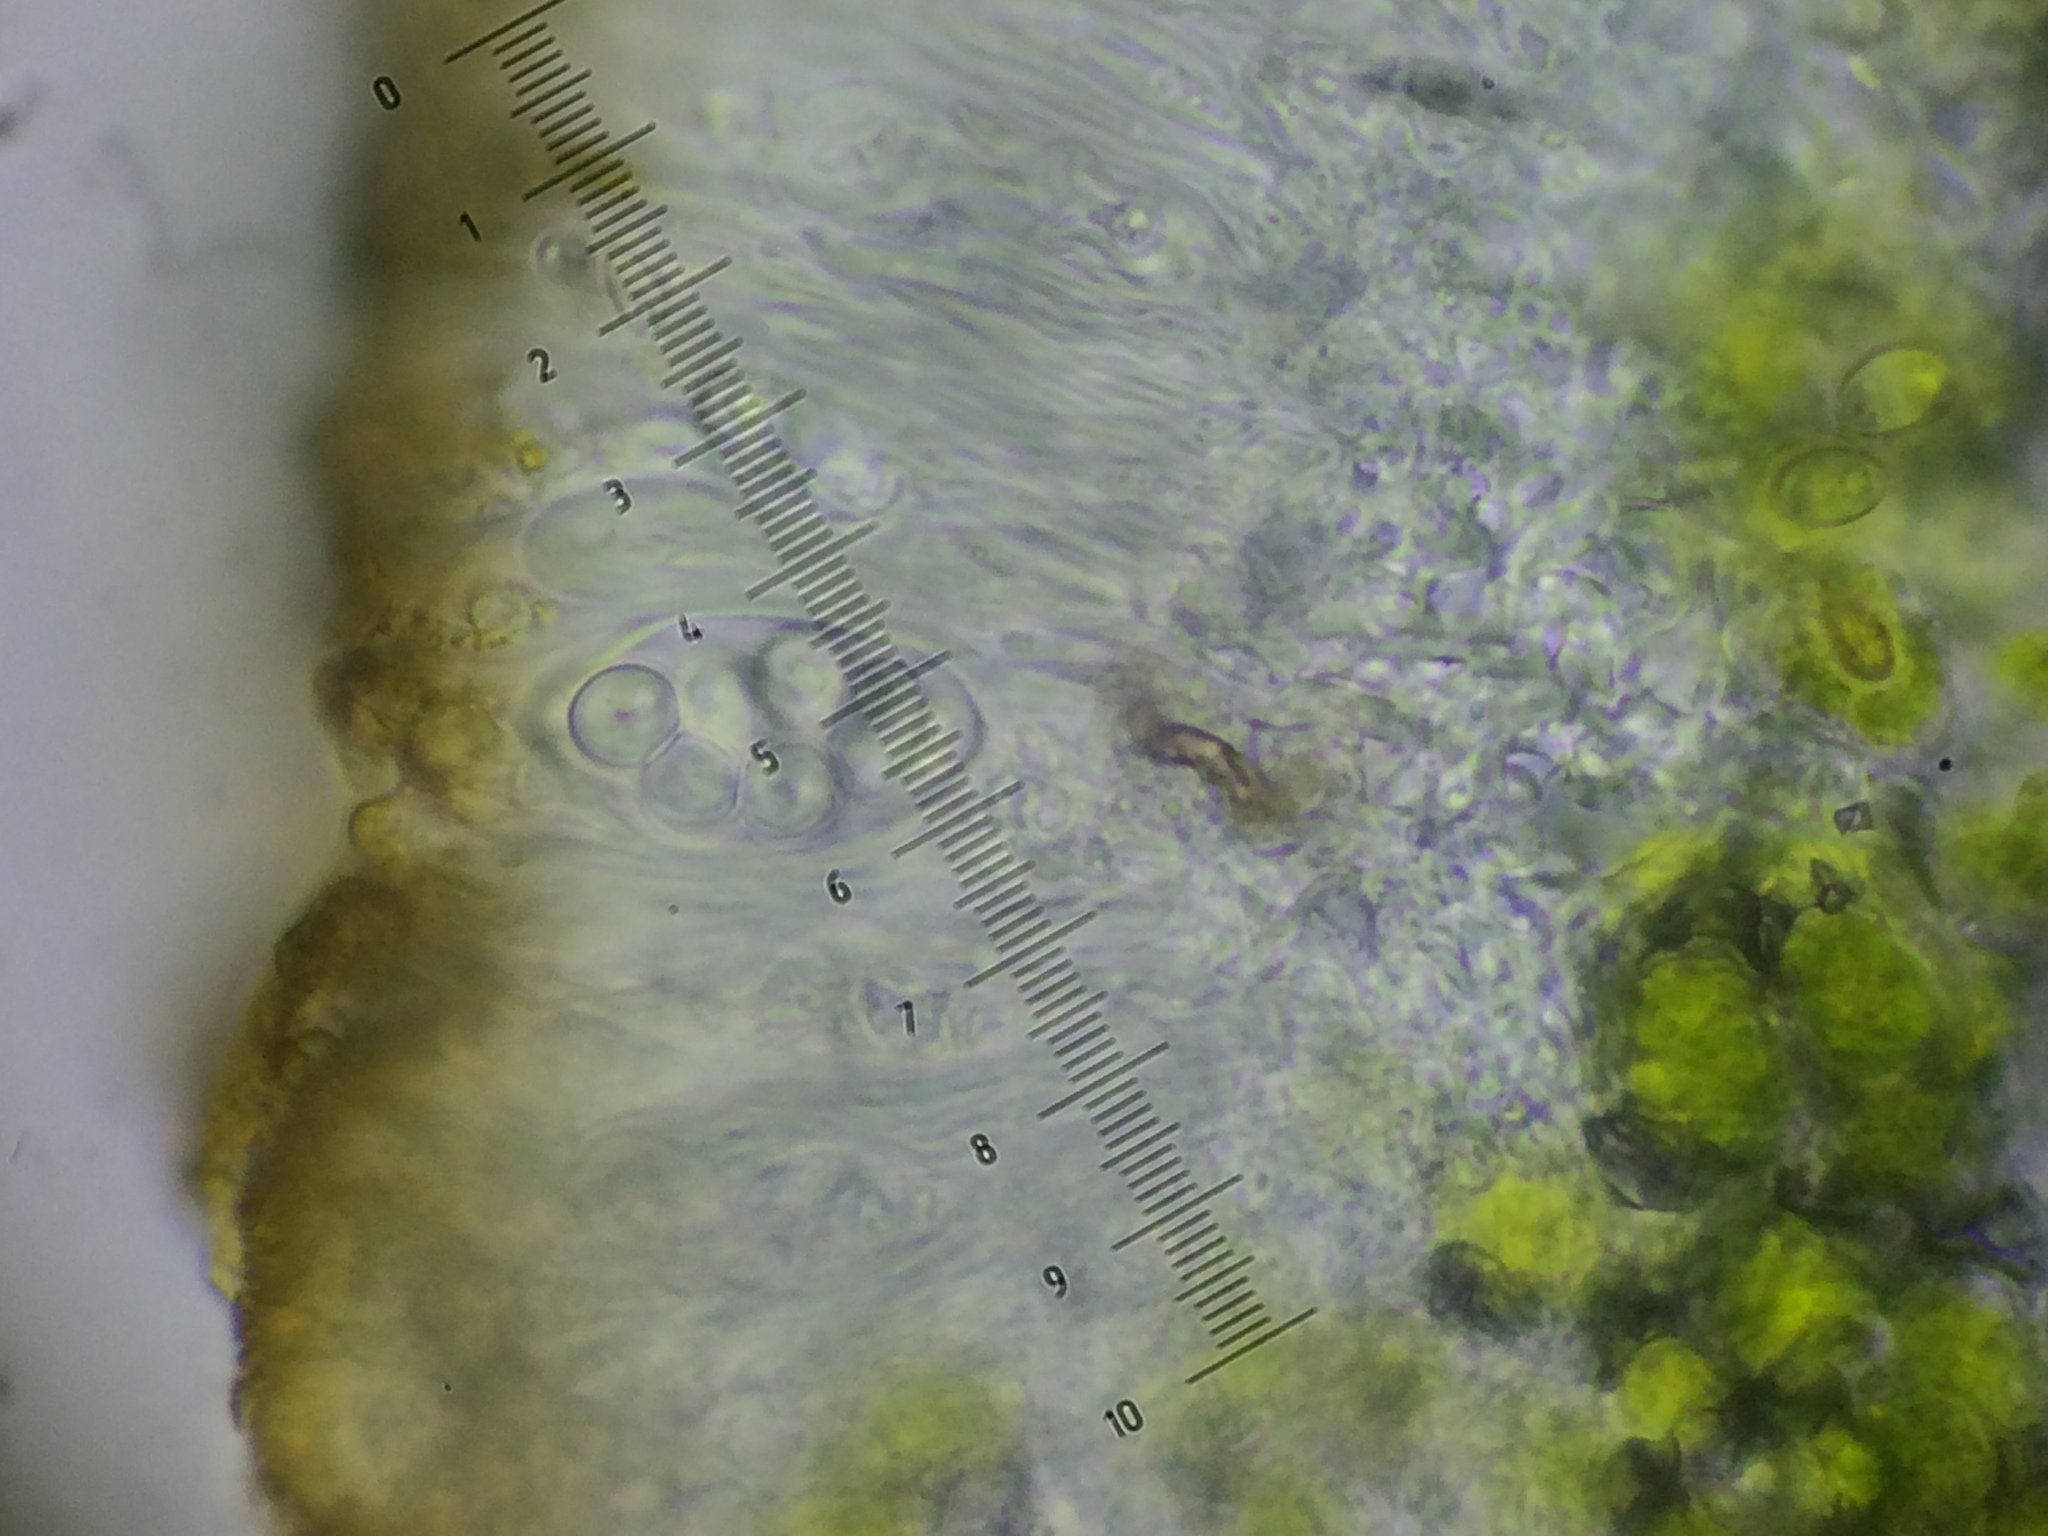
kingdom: Fungi
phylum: Ascomycota
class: Lecanoromycetes
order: Teloschistales
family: Teloschistaceae
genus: Athallia
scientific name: Athallia cerinelloides
